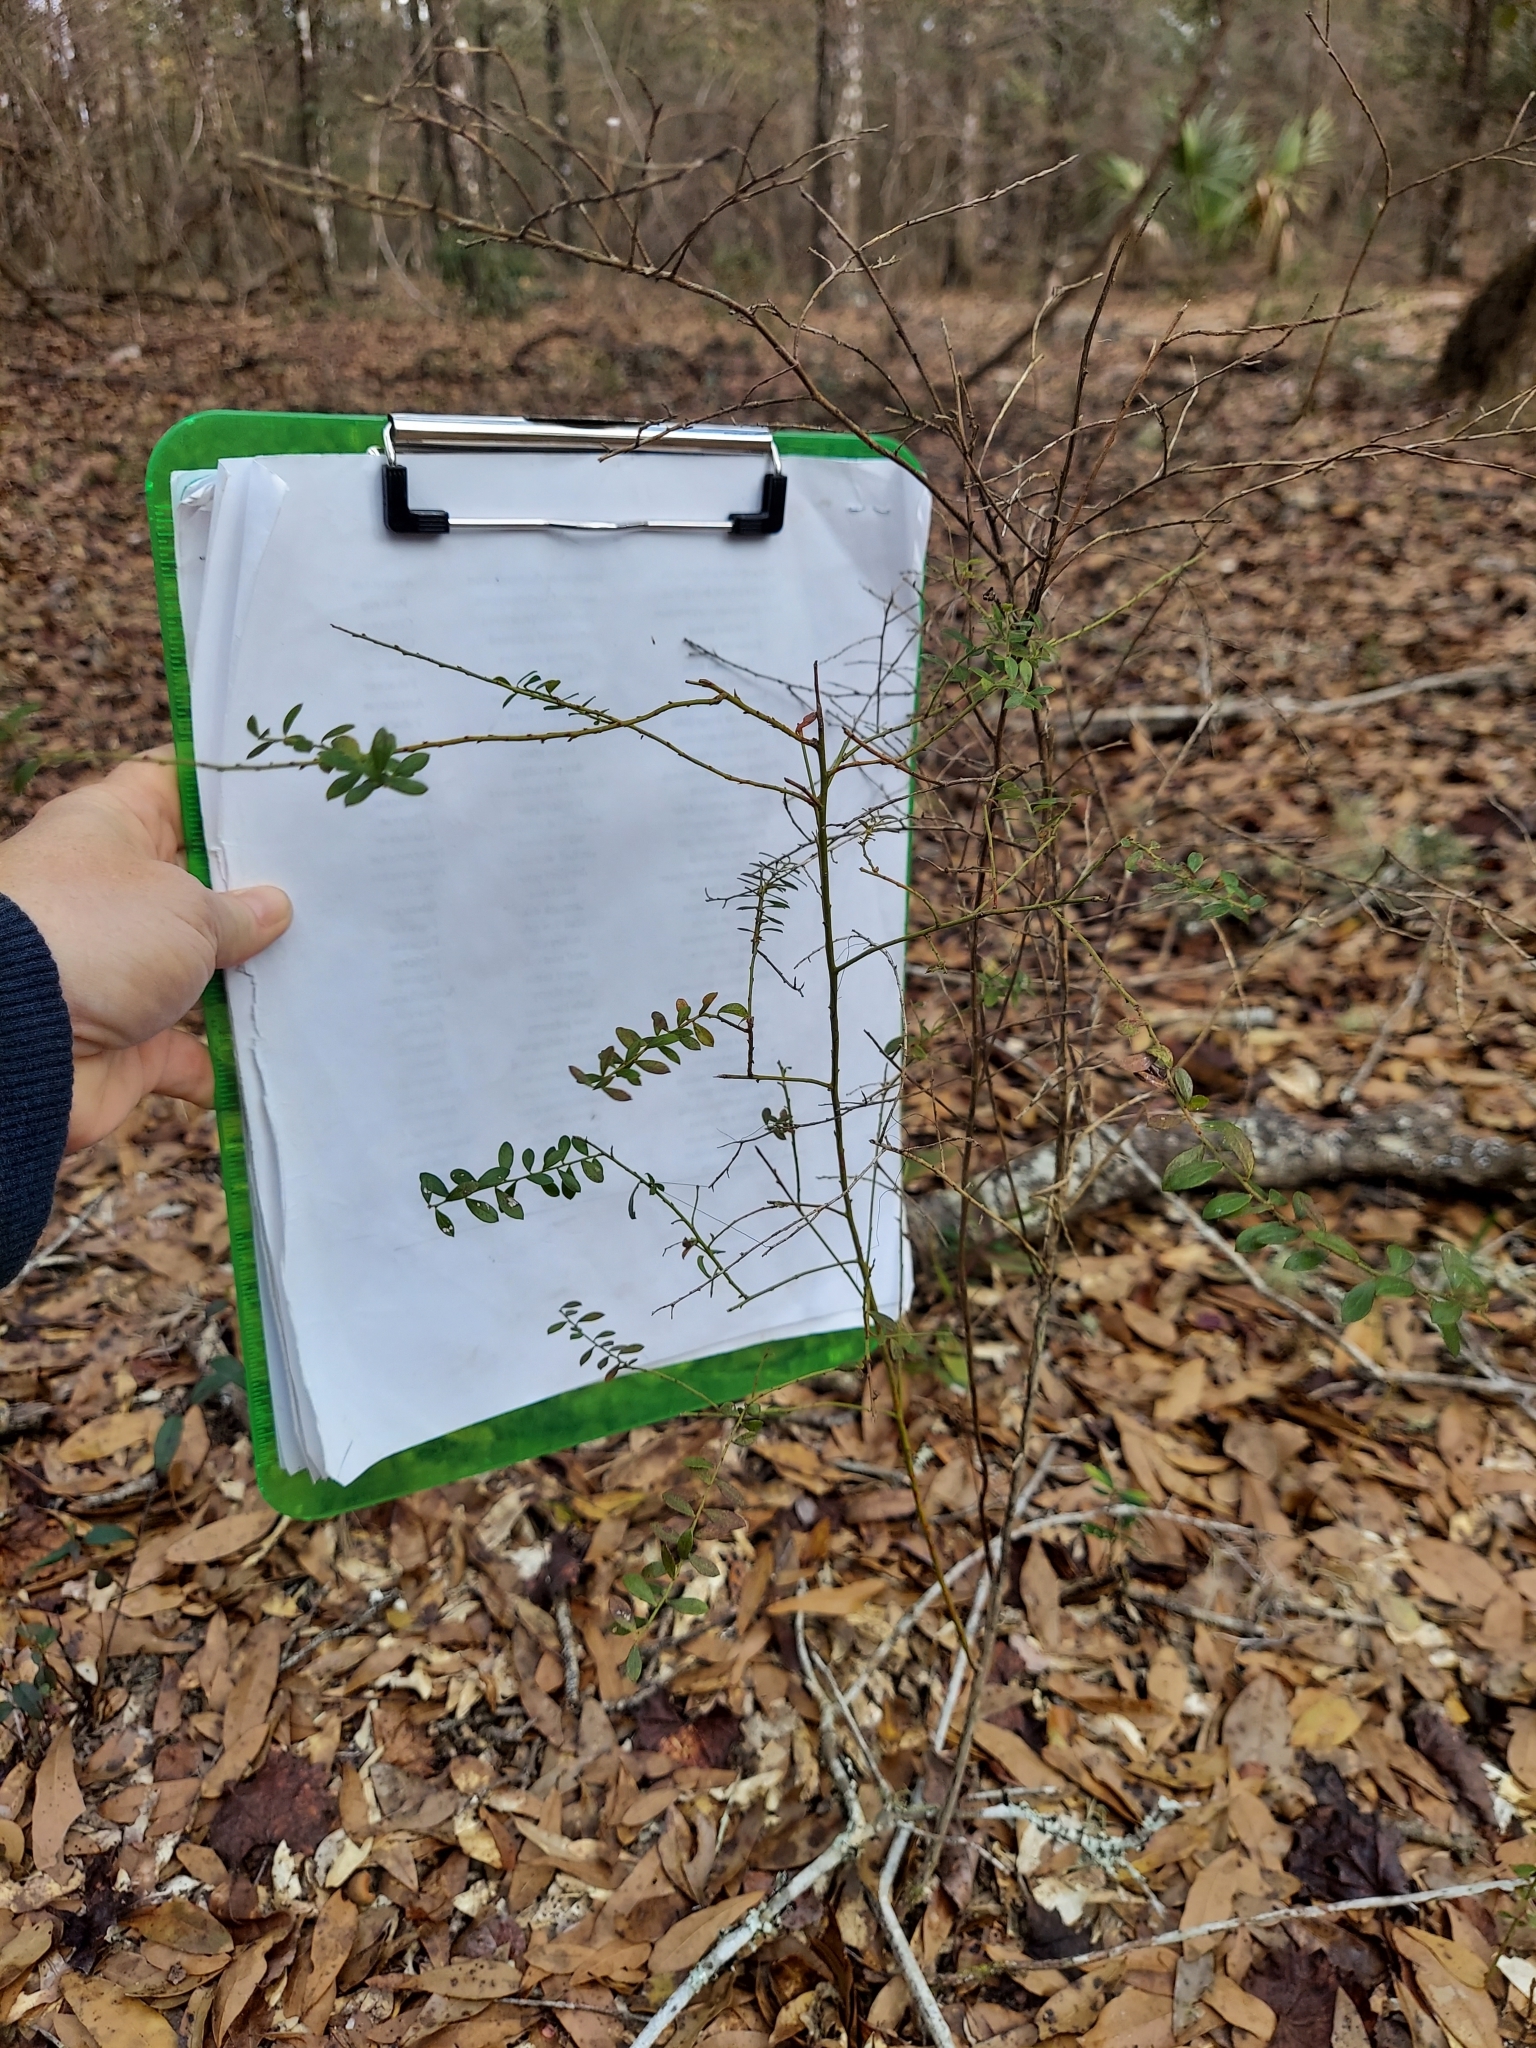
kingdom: Plantae
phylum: Tracheophyta
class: Magnoliopsida
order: Ericales
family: Ericaceae
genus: Vaccinium
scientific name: Vaccinium myrsinites
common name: Evergreen blueberry
